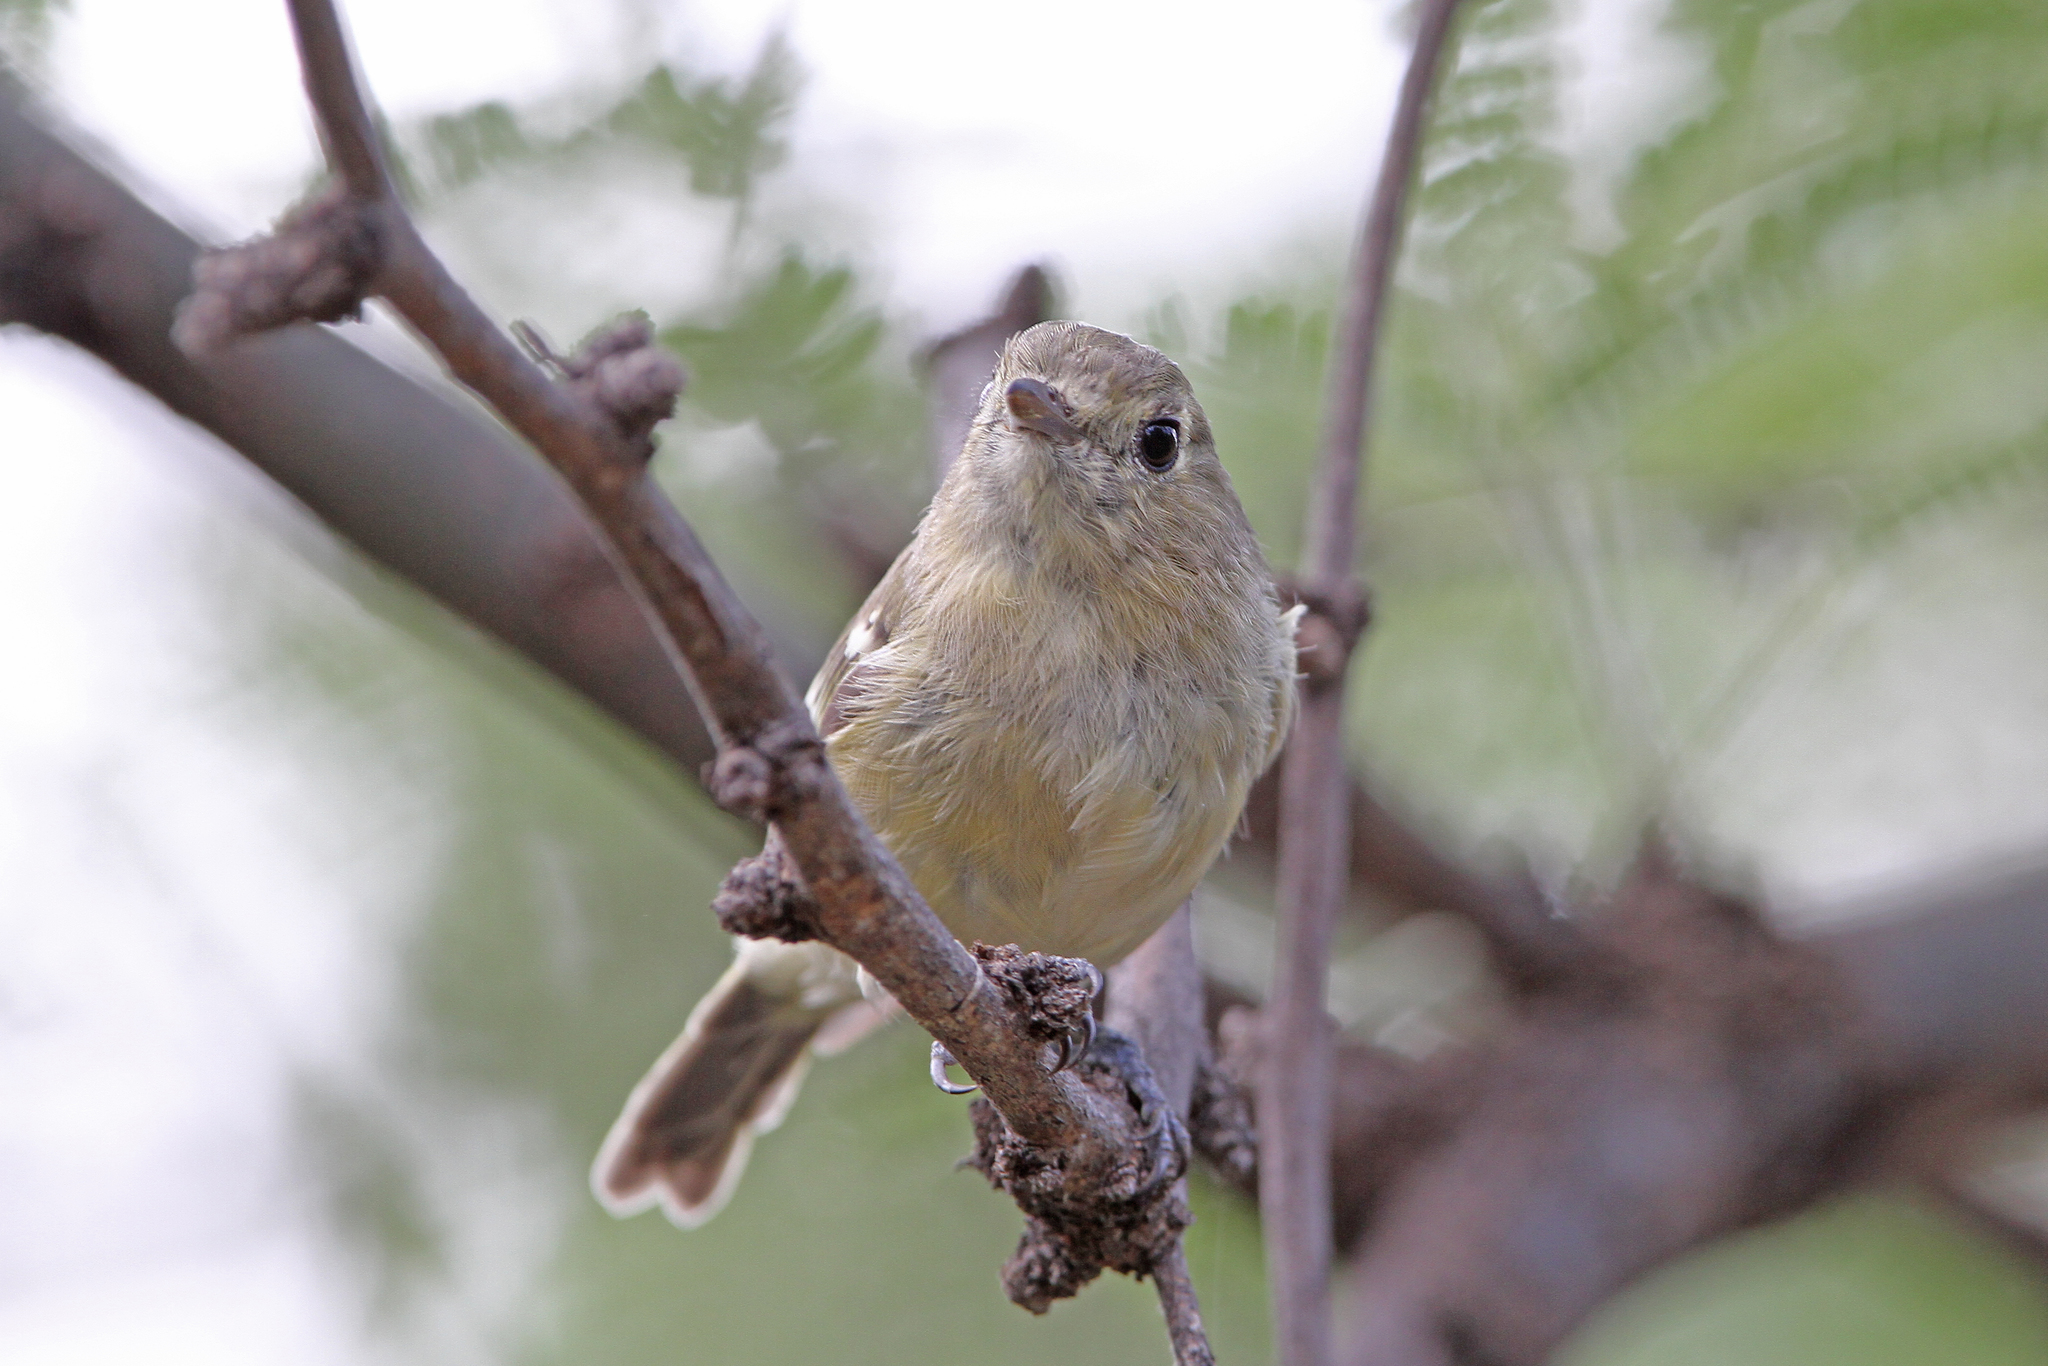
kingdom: Animalia
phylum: Chordata
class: Aves
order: Passeriformes
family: Vireonidae
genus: Vireo
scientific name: Vireo huttoni
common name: Hutton's vireo
